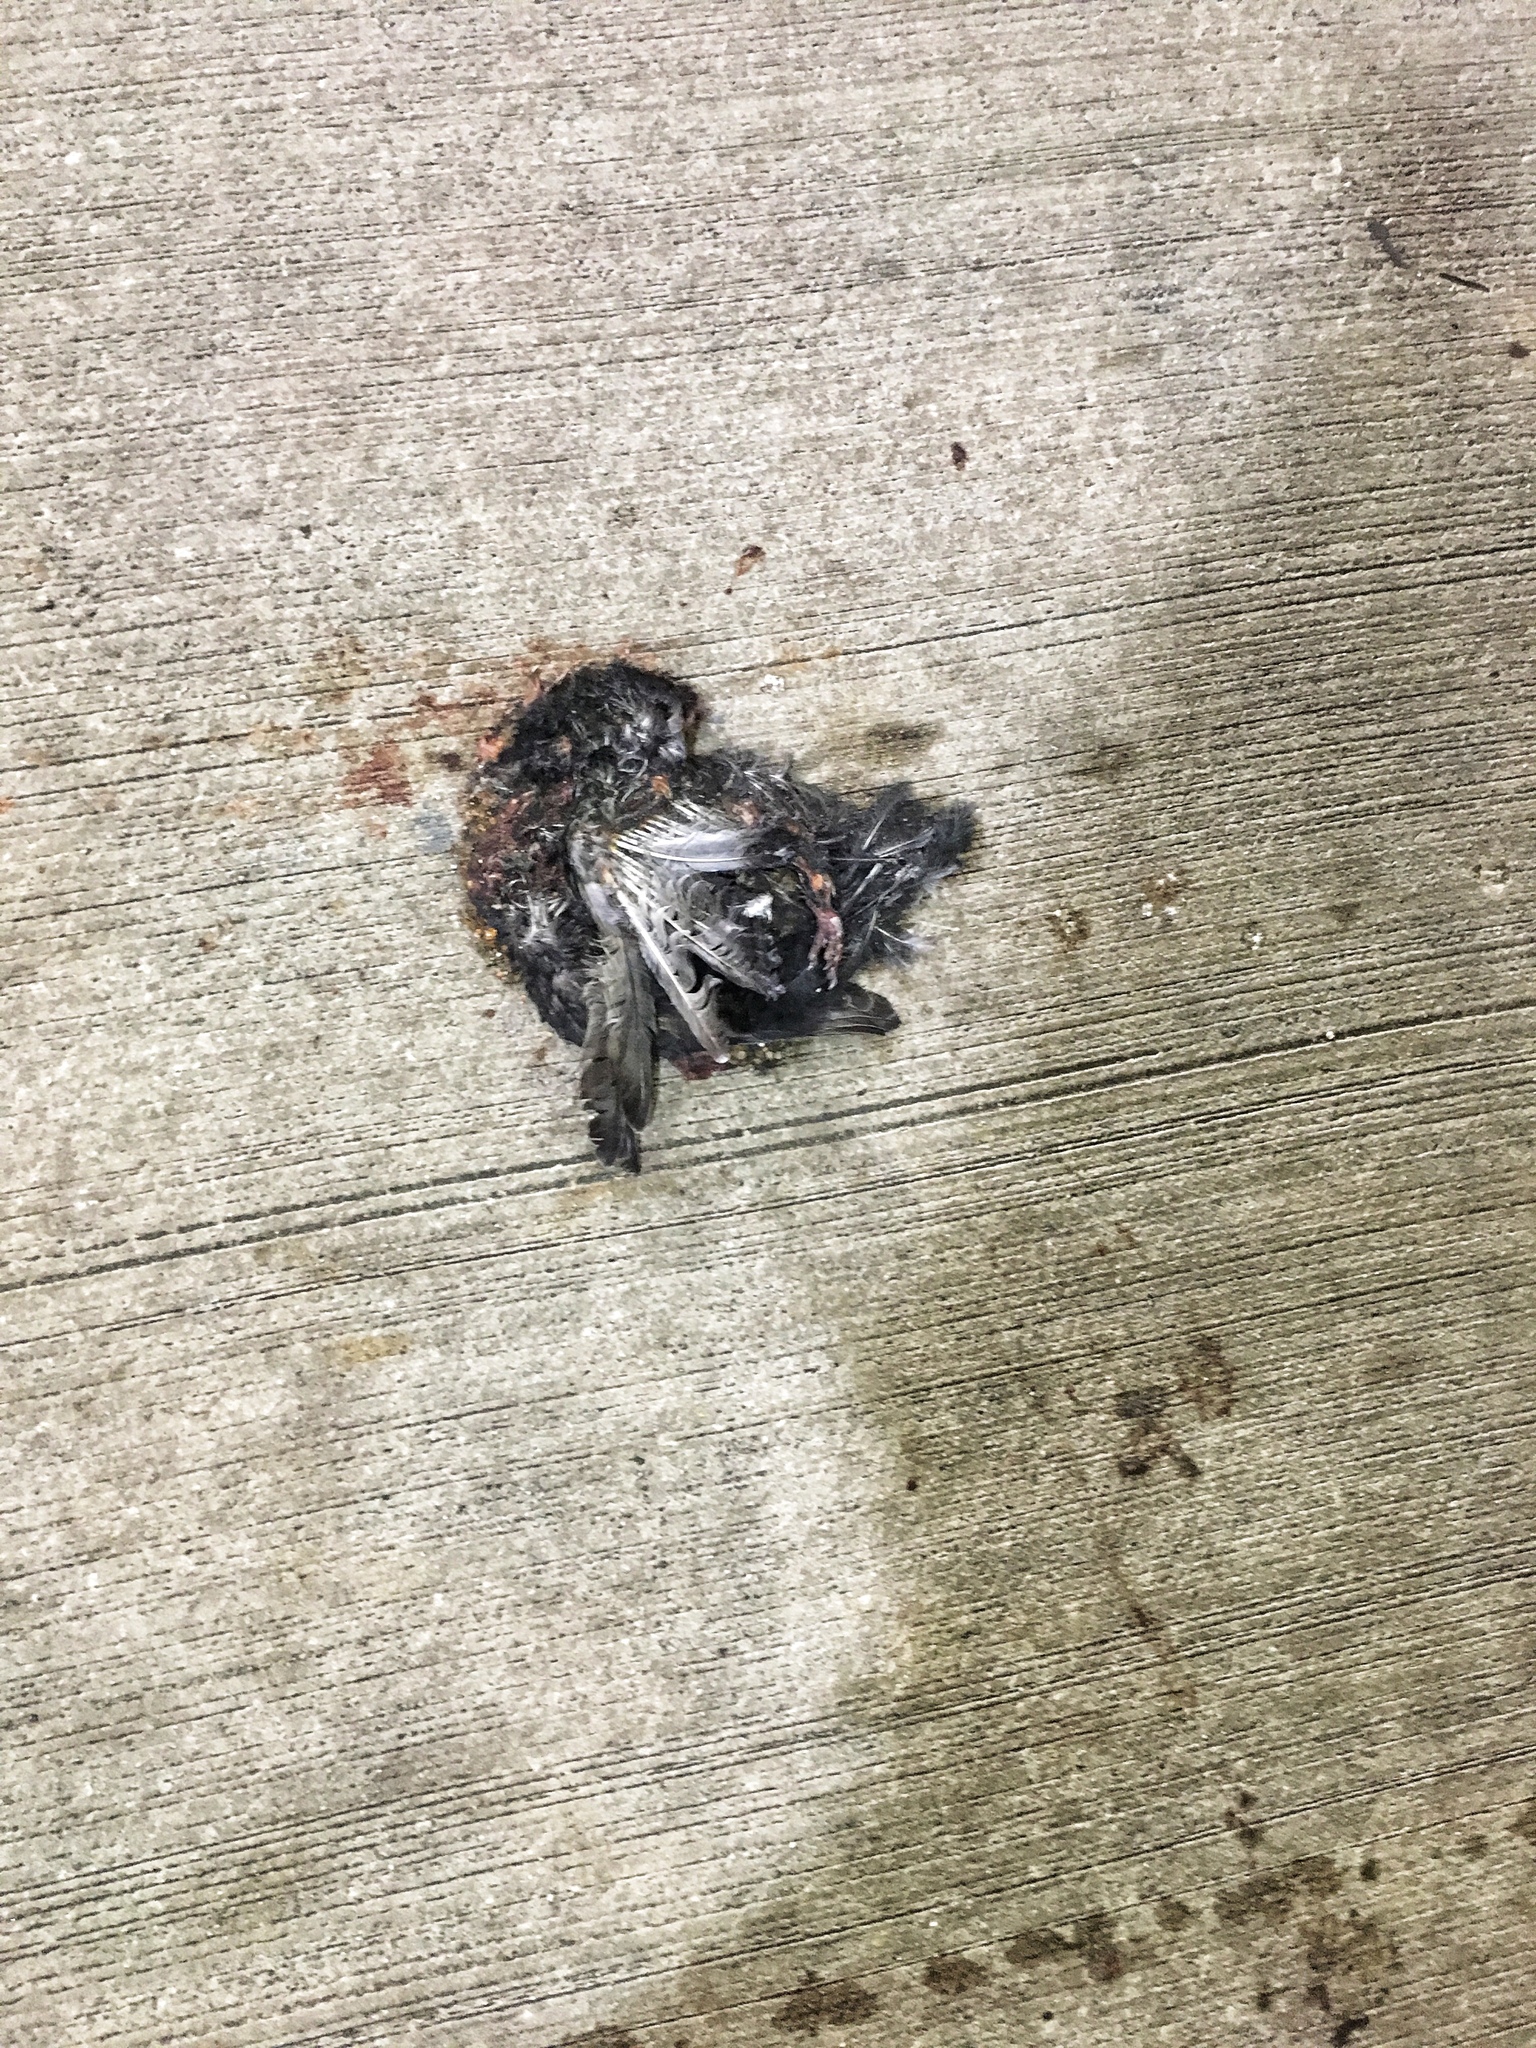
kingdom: Animalia
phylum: Chordata
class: Aves
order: Columbiformes
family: Columbidae
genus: Columba
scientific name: Columba livia
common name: Rock pigeon
